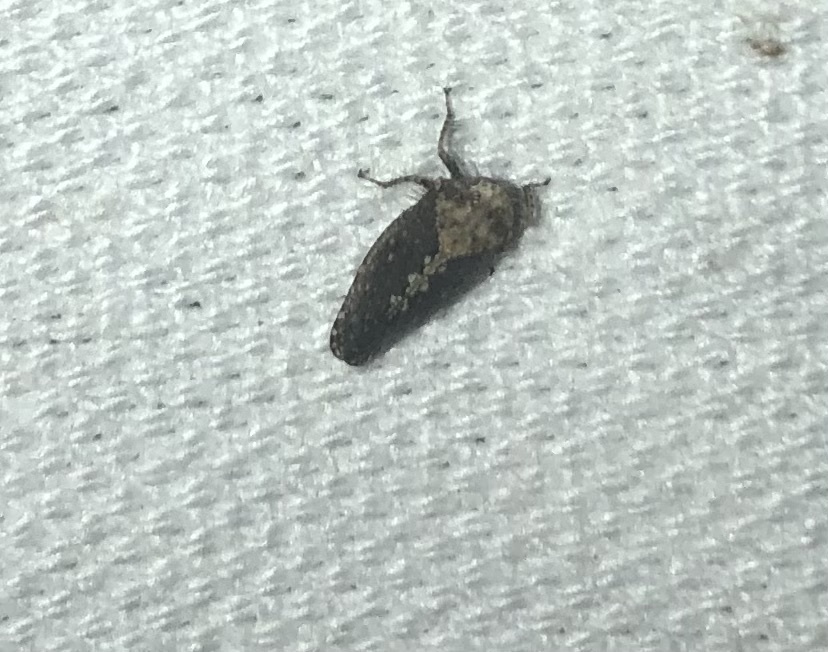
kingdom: Animalia
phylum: Arthropoda
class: Insecta
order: Hemiptera
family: Cicadellidae
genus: Excultanus
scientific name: Excultanus excultus
